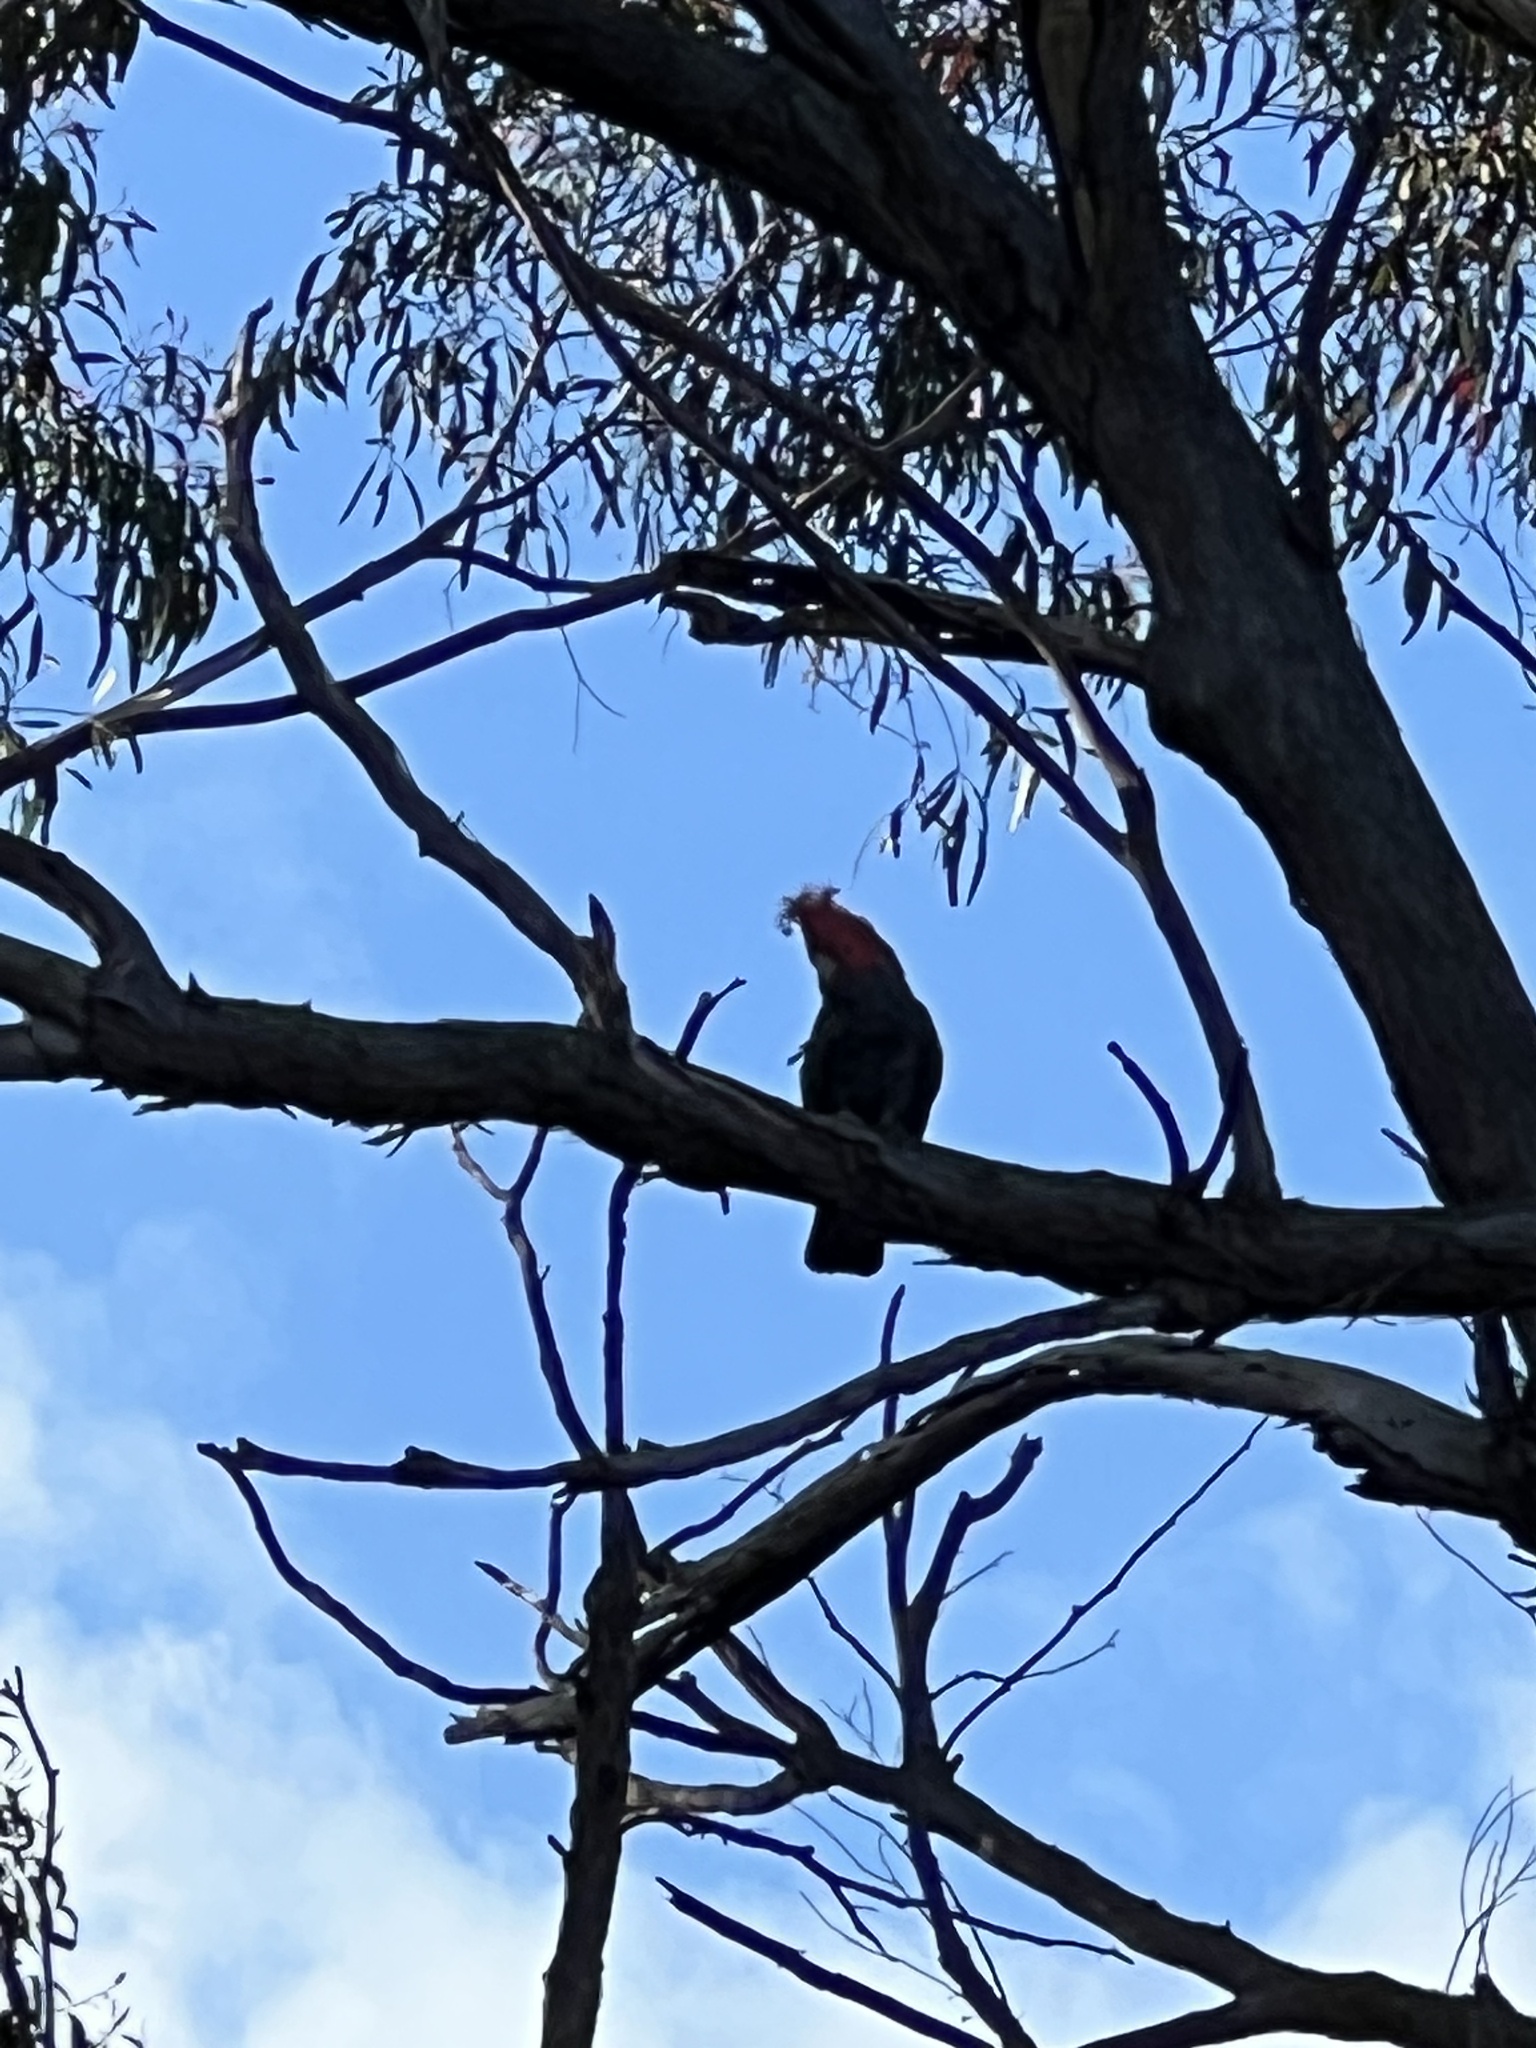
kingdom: Animalia
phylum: Chordata
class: Aves
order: Psittaciformes
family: Psittacidae
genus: Callocephalon
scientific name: Callocephalon fimbriatum
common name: Gang-gang cockatoo
